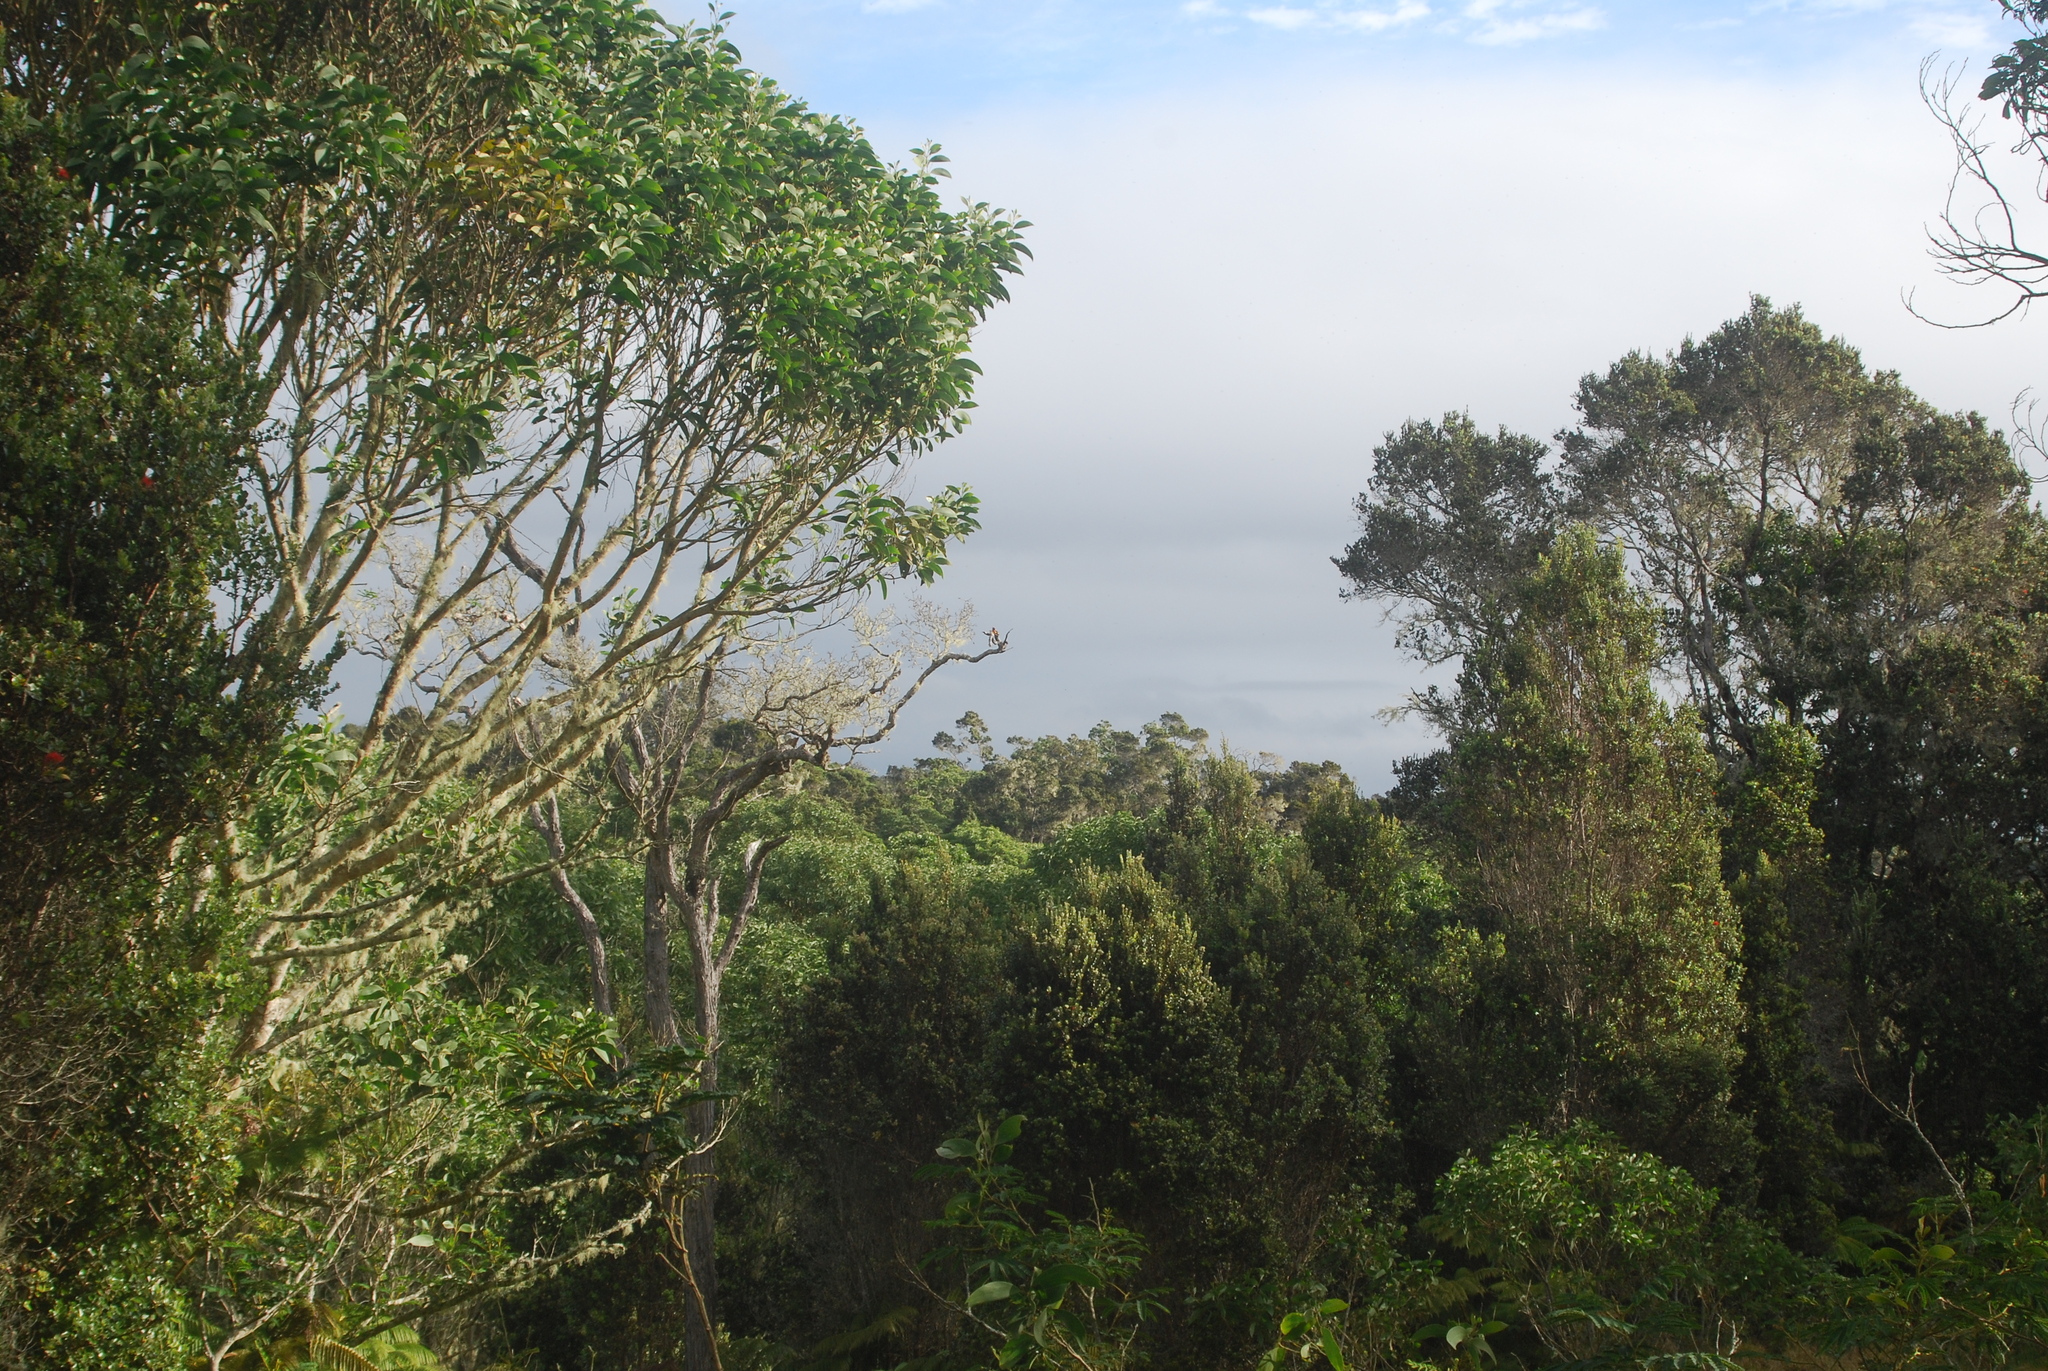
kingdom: Plantae
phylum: Tracheophyta
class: Magnoliopsida
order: Fabales
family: Fabaceae
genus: Acacia
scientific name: Acacia koa
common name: Gray koa
